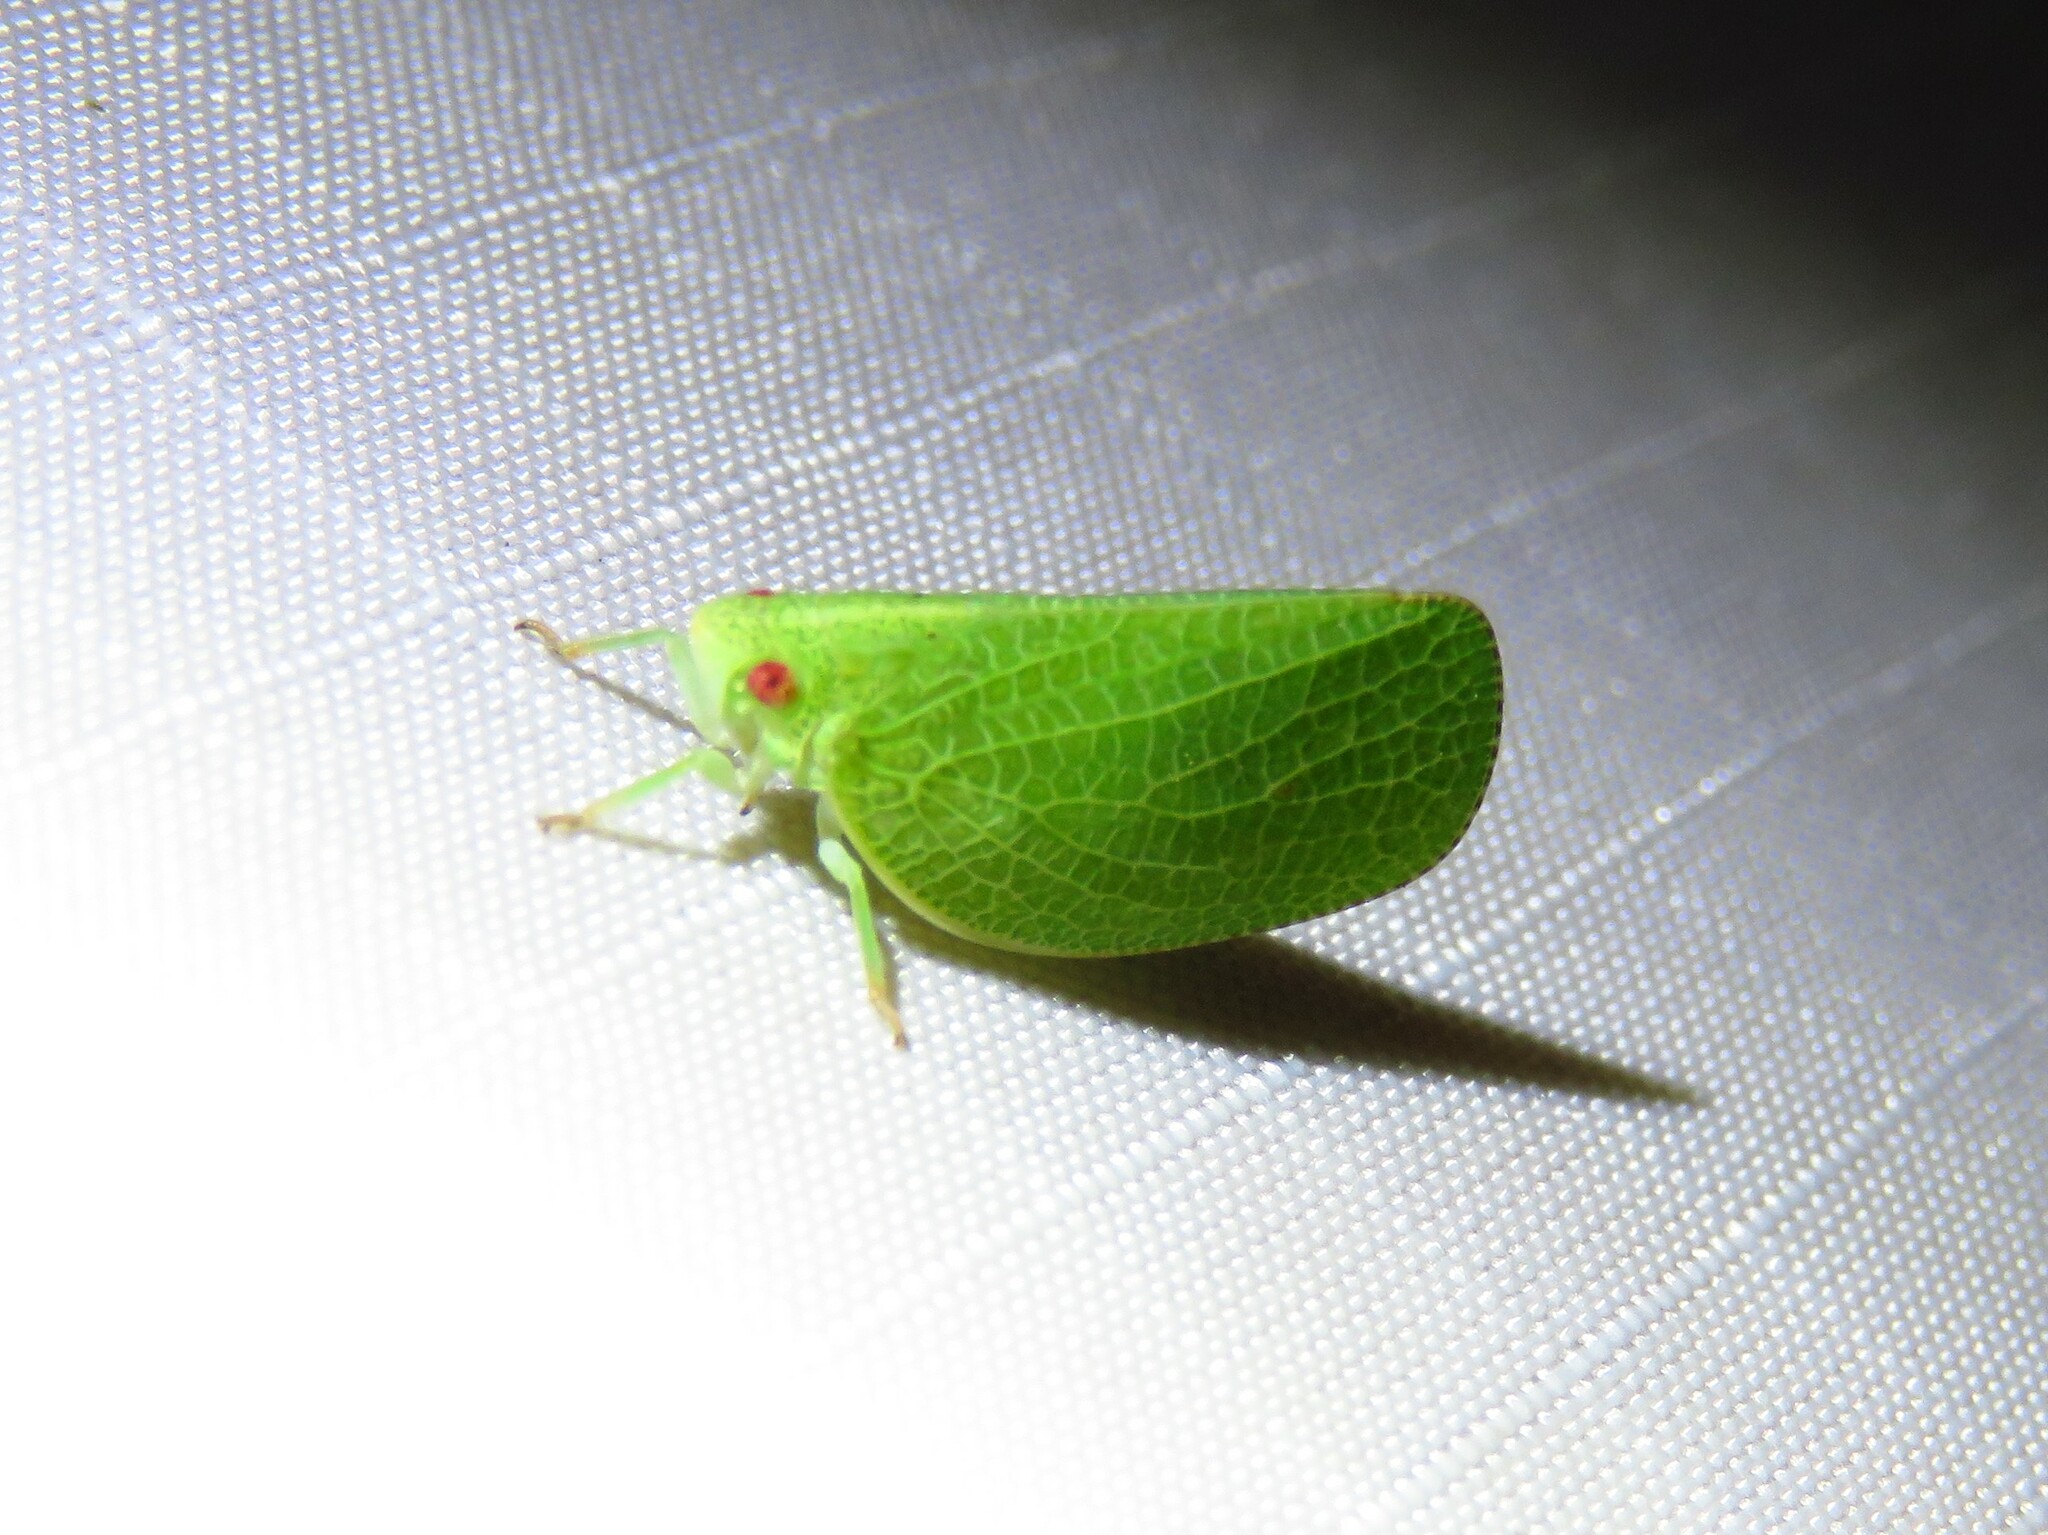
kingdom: Animalia
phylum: Arthropoda
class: Insecta
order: Hemiptera
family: Acanaloniidae
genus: Acanalonia
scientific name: Acanalonia conica
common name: Green cone-headed planthopper
